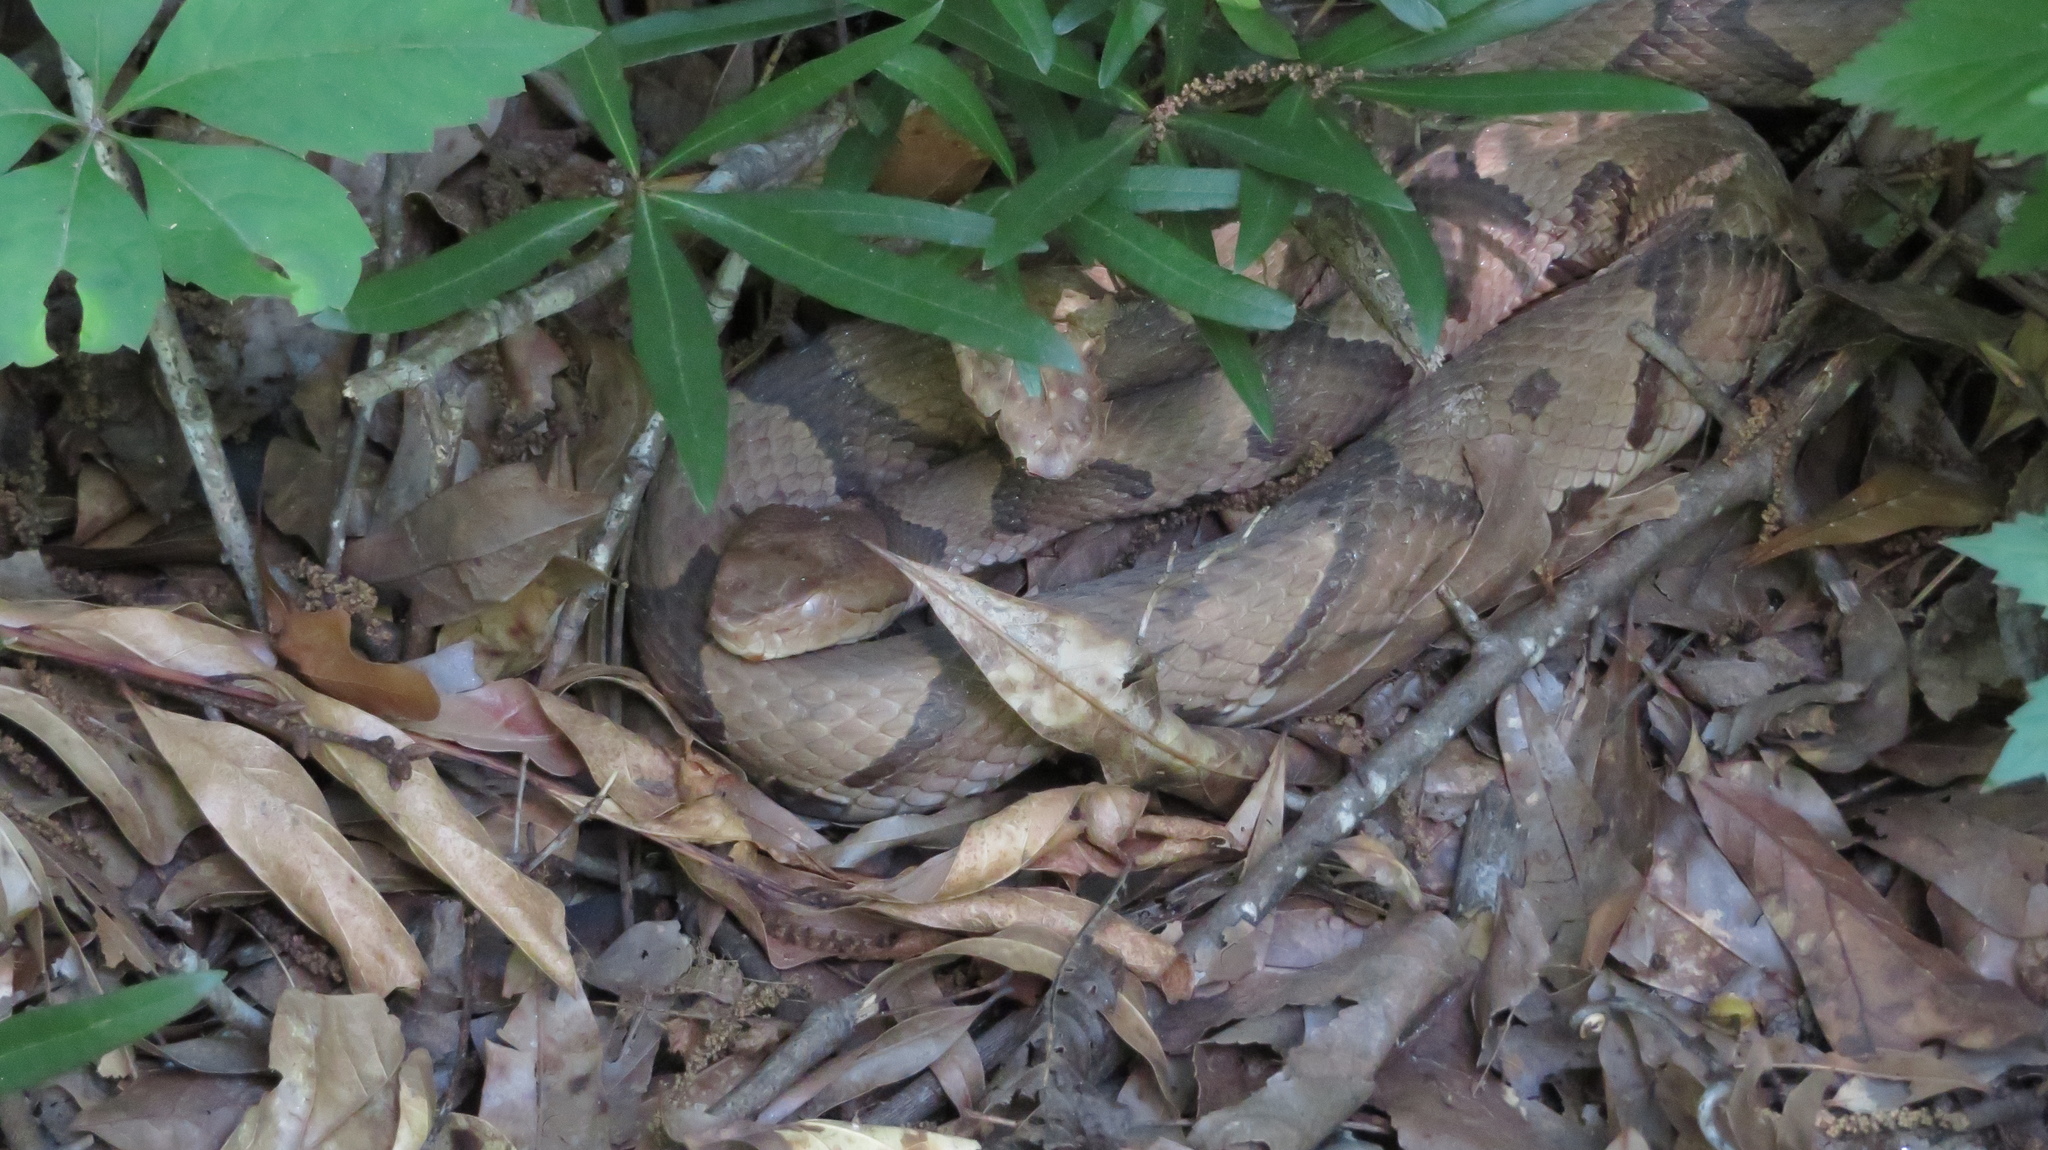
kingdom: Animalia
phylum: Chordata
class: Squamata
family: Viperidae
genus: Agkistrodon
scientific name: Agkistrodon contortrix
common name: Northern copperhead
